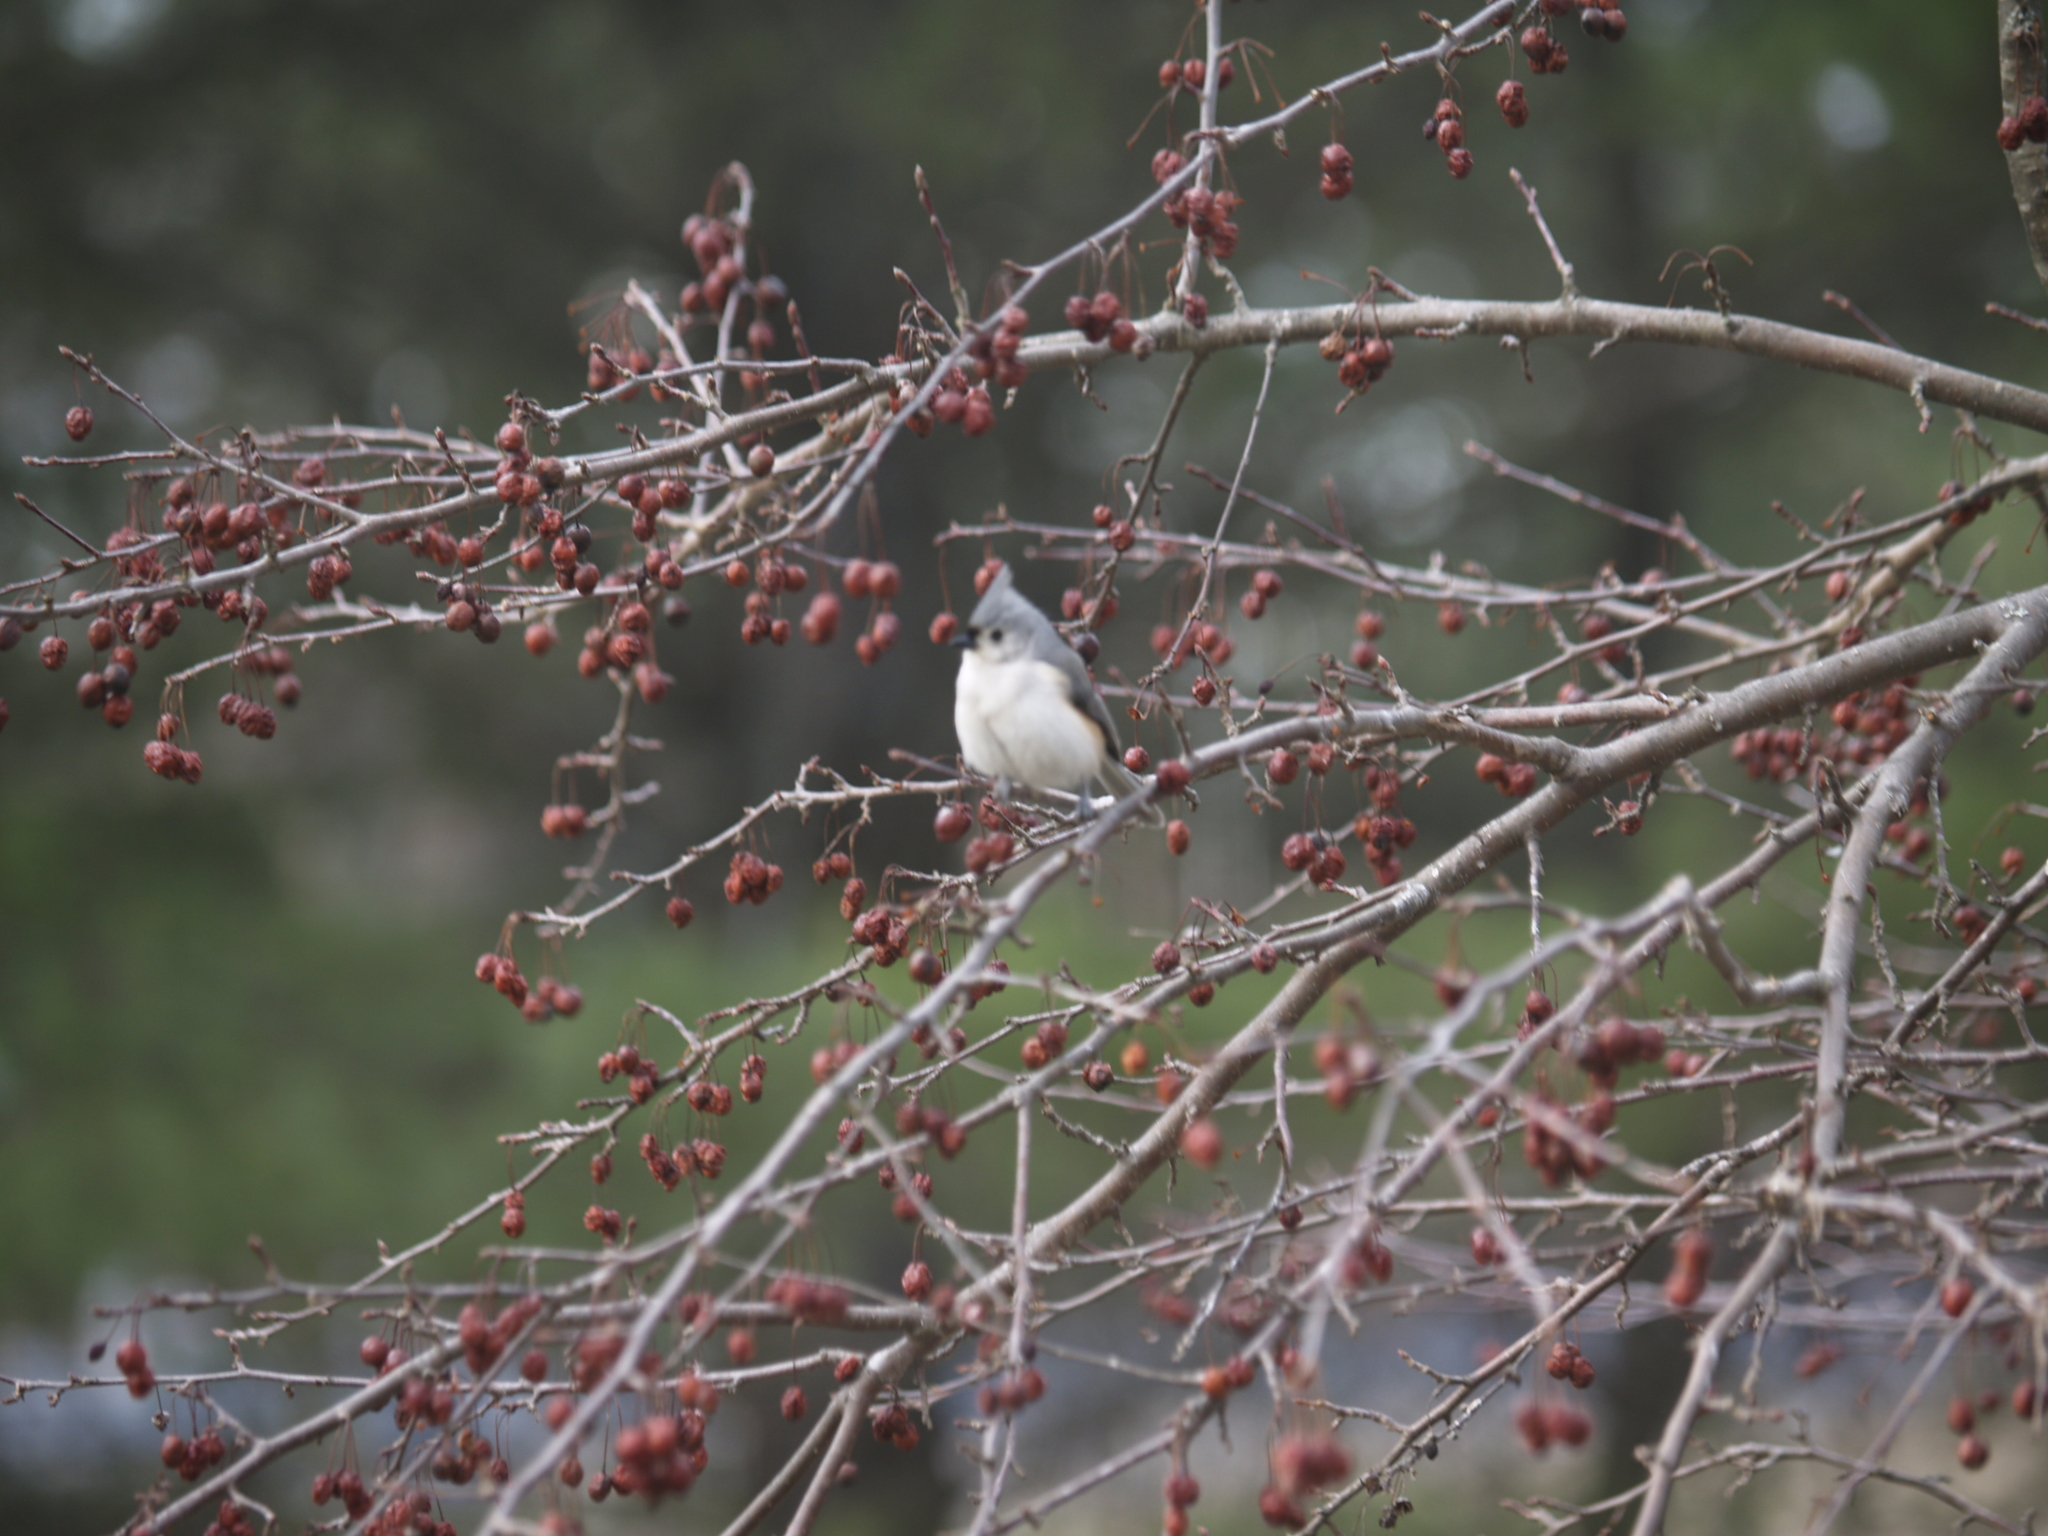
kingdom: Animalia
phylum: Chordata
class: Aves
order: Passeriformes
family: Paridae
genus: Baeolophus
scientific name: Baeolophus bicolor
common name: Tufted titmouse
